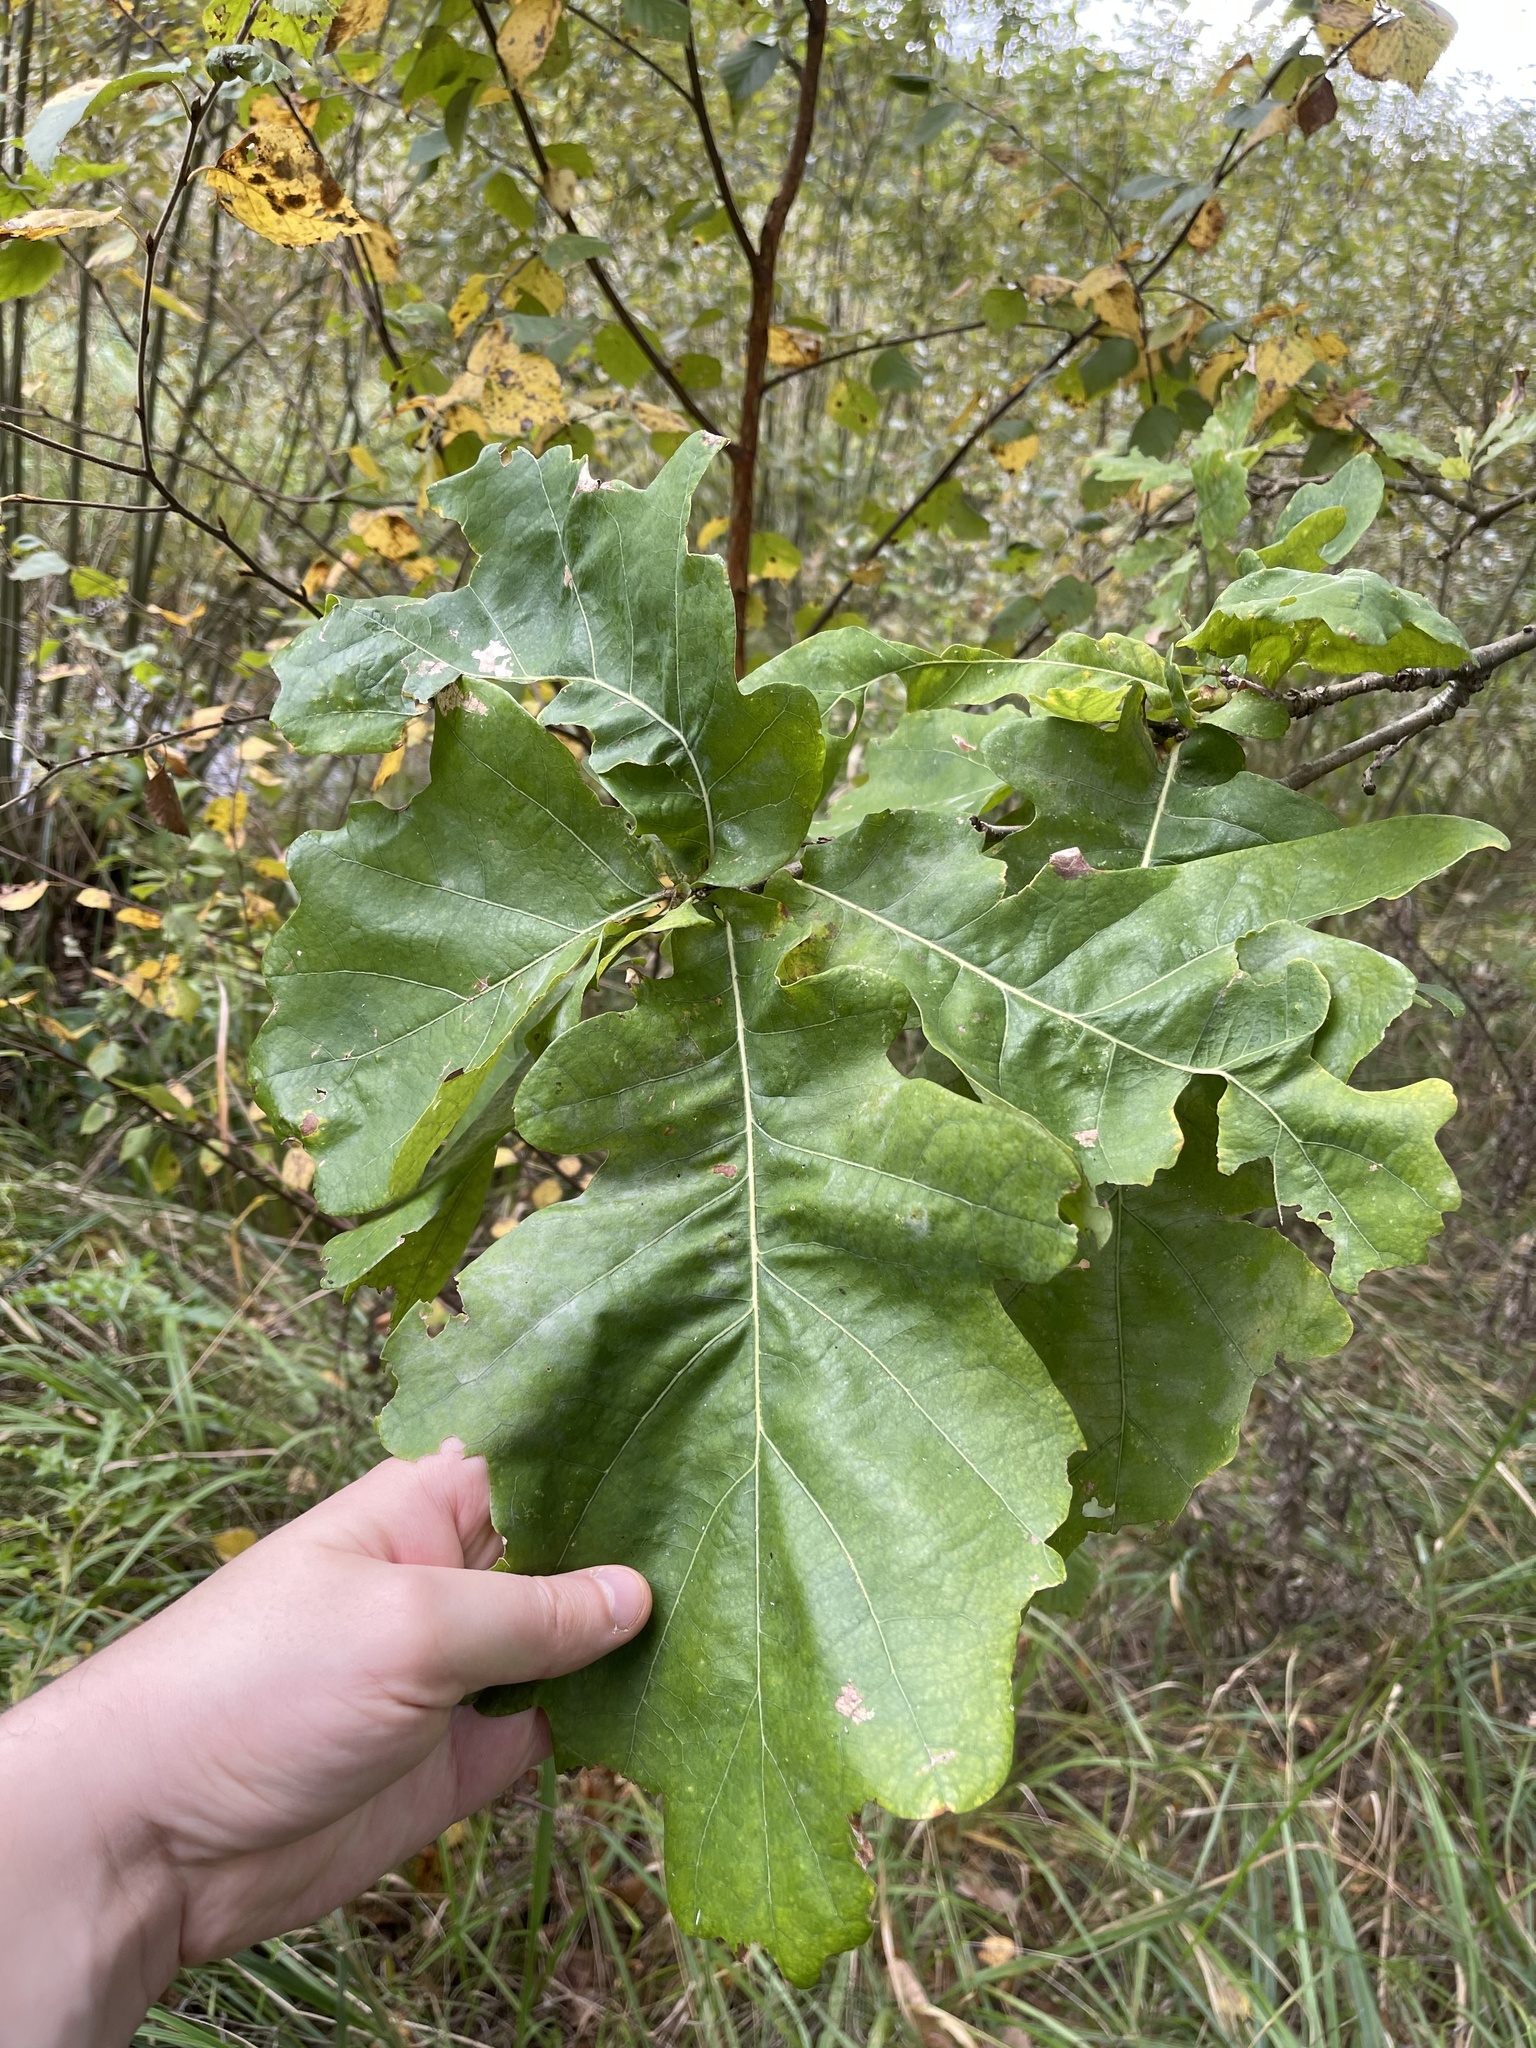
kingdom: Plantae
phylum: Tracheophyta
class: Magnoliopsida
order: Fagales
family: Fagaceae
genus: Quercus
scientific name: Quercus robur
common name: Pedunculate oak
